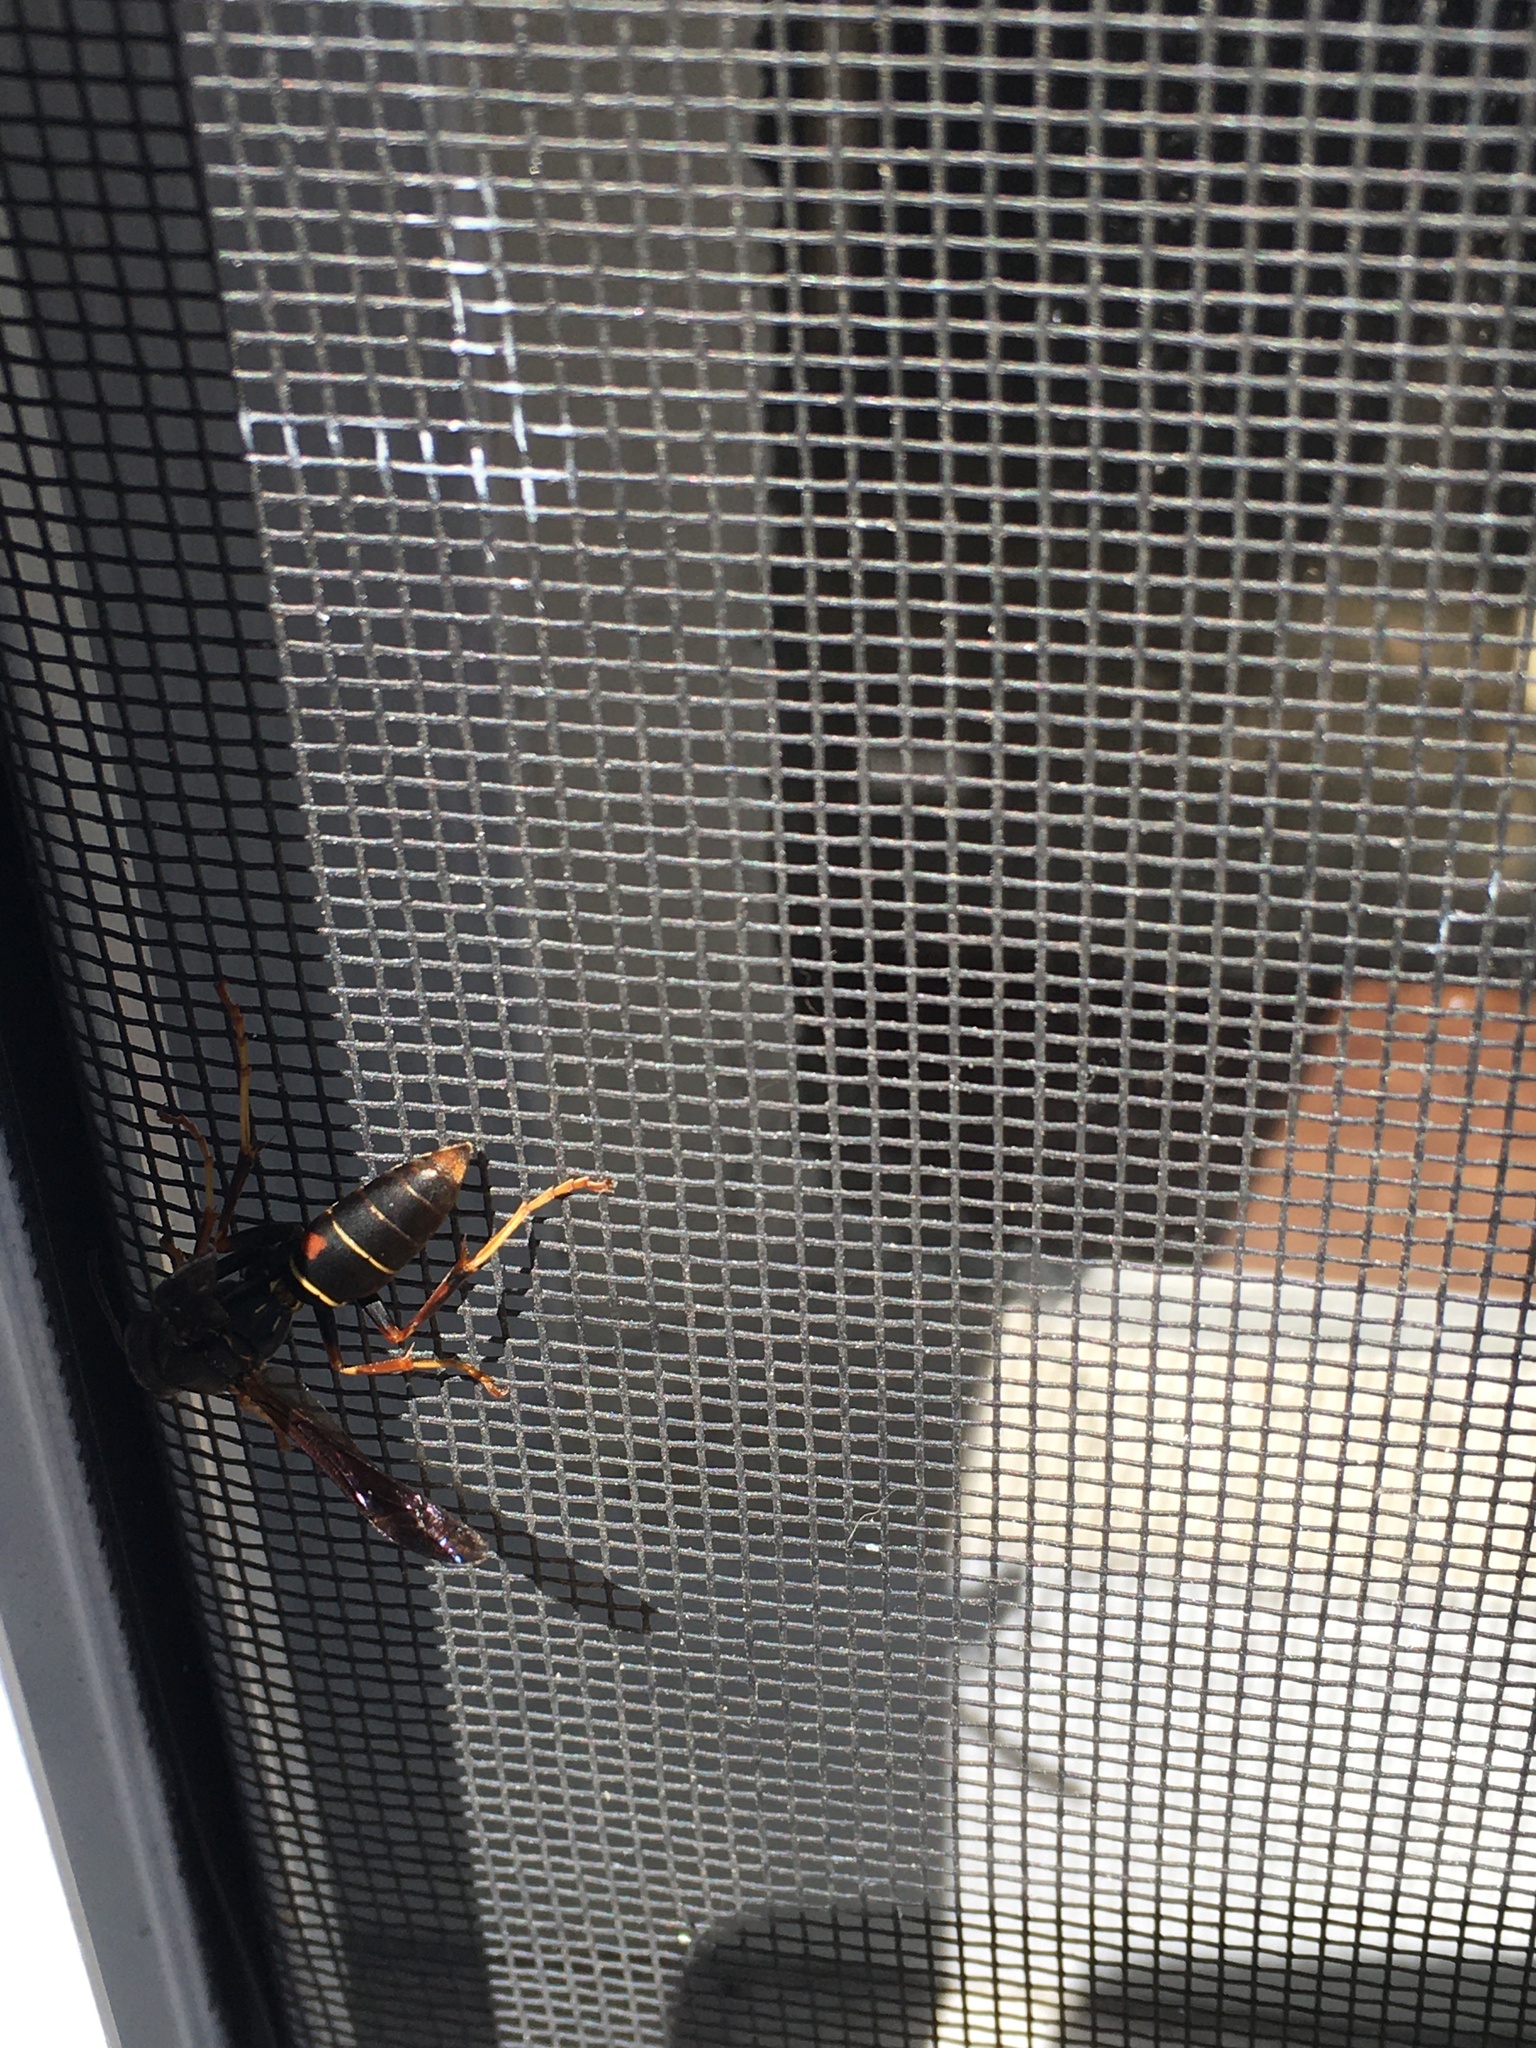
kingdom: Animalia
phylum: Arthropoda
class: Insecta
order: Hymenoptera
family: Eumenidae
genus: Polistes
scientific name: Polistes fuscatus
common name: Dark paper wasp
